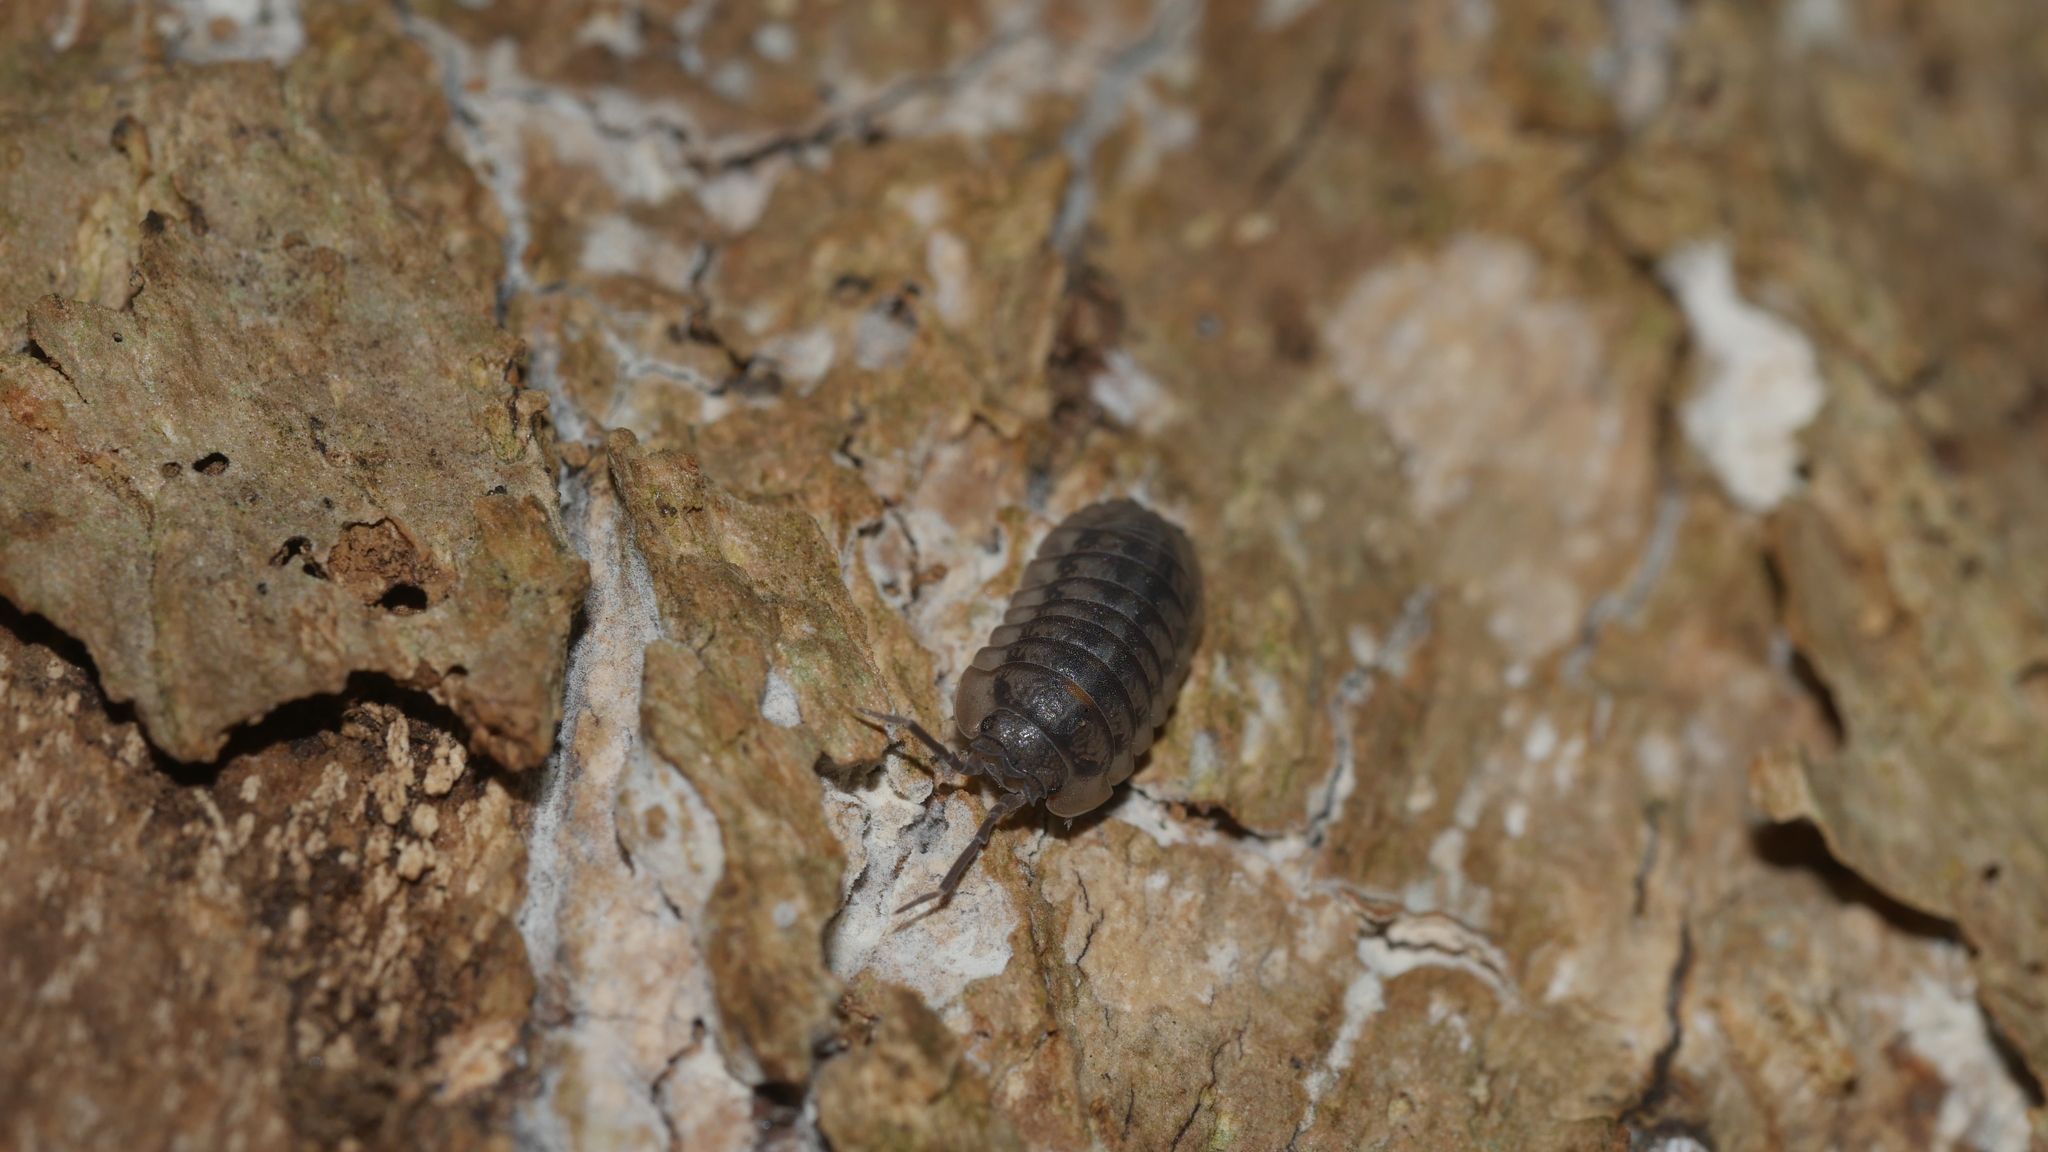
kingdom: Animalia
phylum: Arthropoda
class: Malacostraca
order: Isopoda
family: Armadillidiidae
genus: Armadillidium
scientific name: Armadillidium nasatum
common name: Isopod
